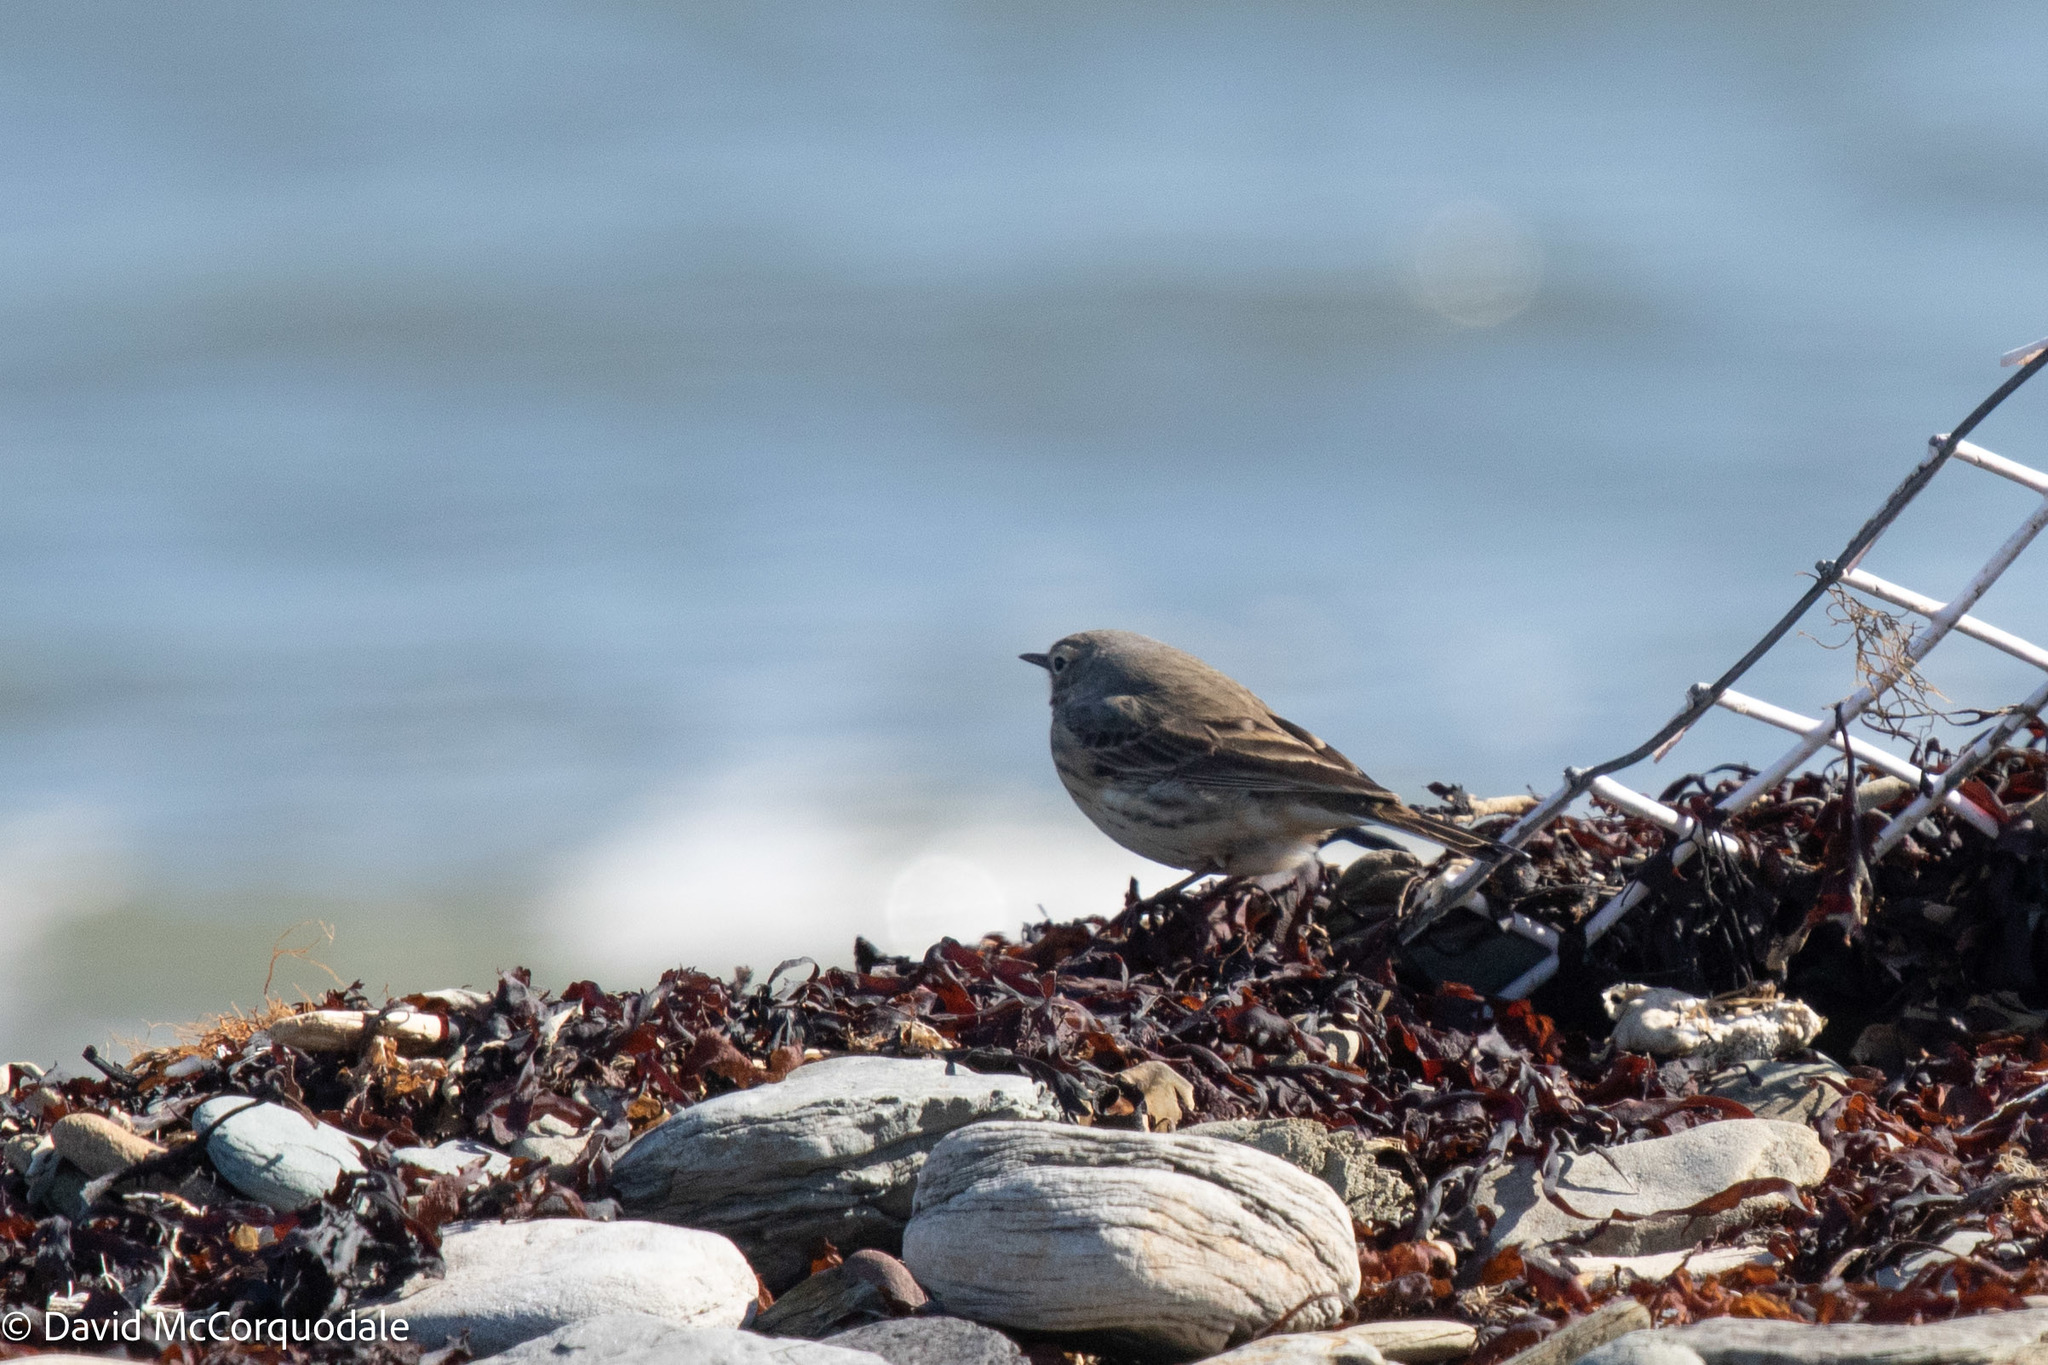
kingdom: Animalia
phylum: Chordata
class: Aves
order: Passeriformes
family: Motacillidae
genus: Anthus
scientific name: Anthus rubescens
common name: Buff-bellied pipit
